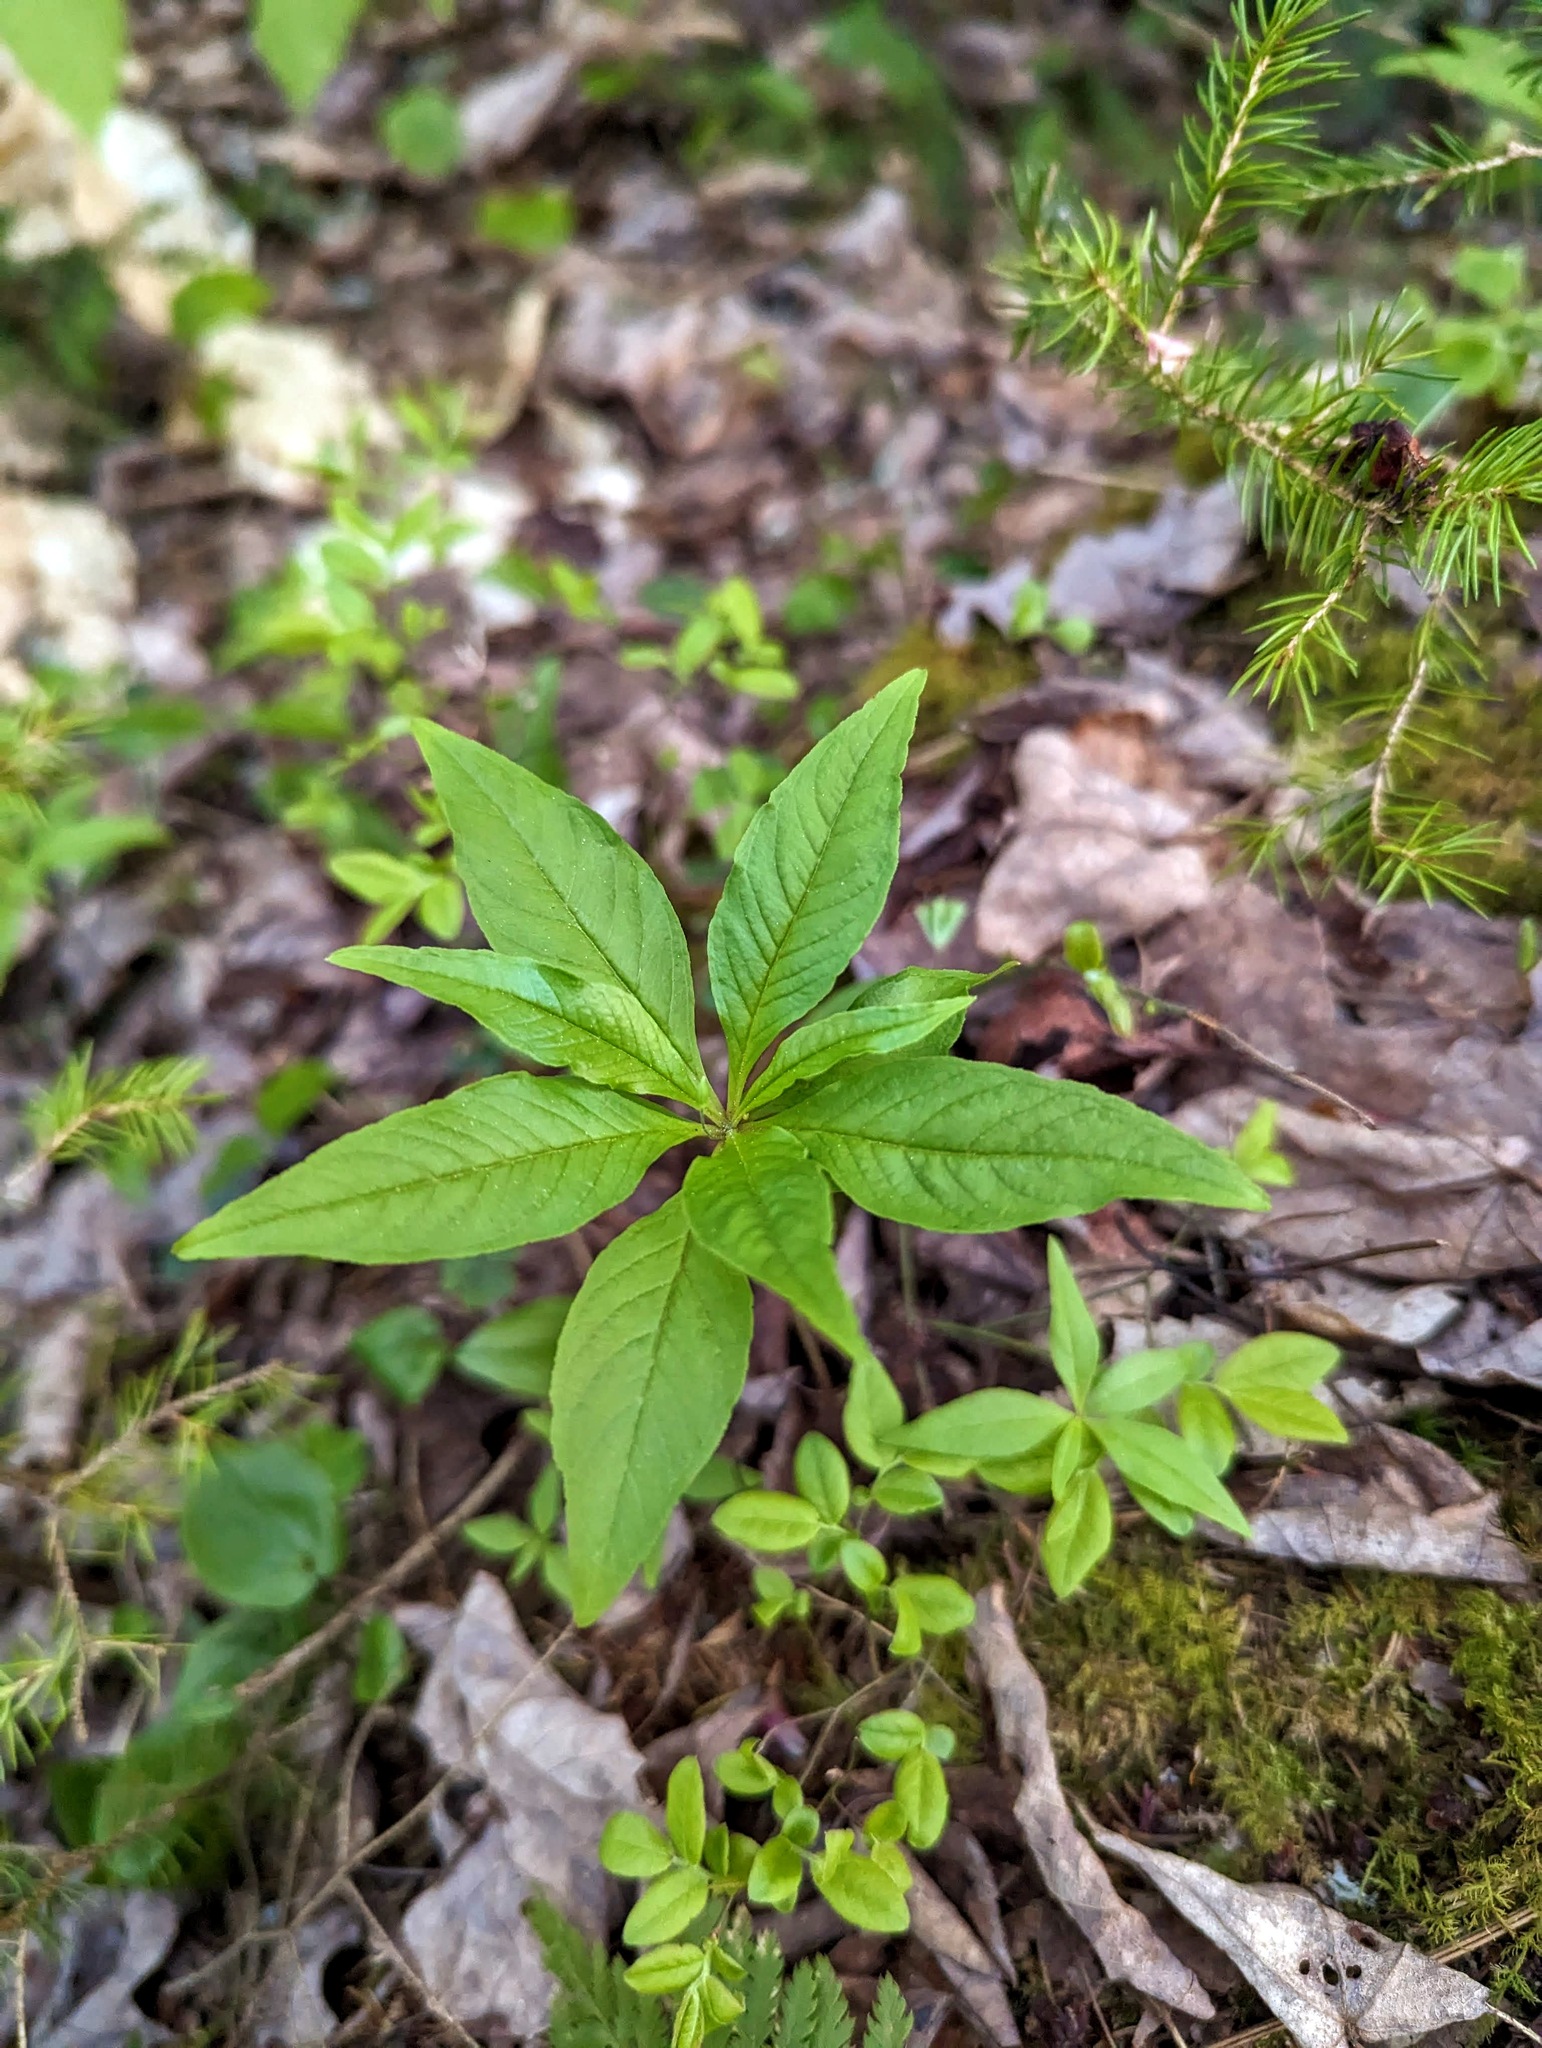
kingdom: Plantae
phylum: Tracheophyta
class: Magnoliopsida
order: Ericales
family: Primulaceae
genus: Lysimachia
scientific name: Lysimachia borealis
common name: American starflower
